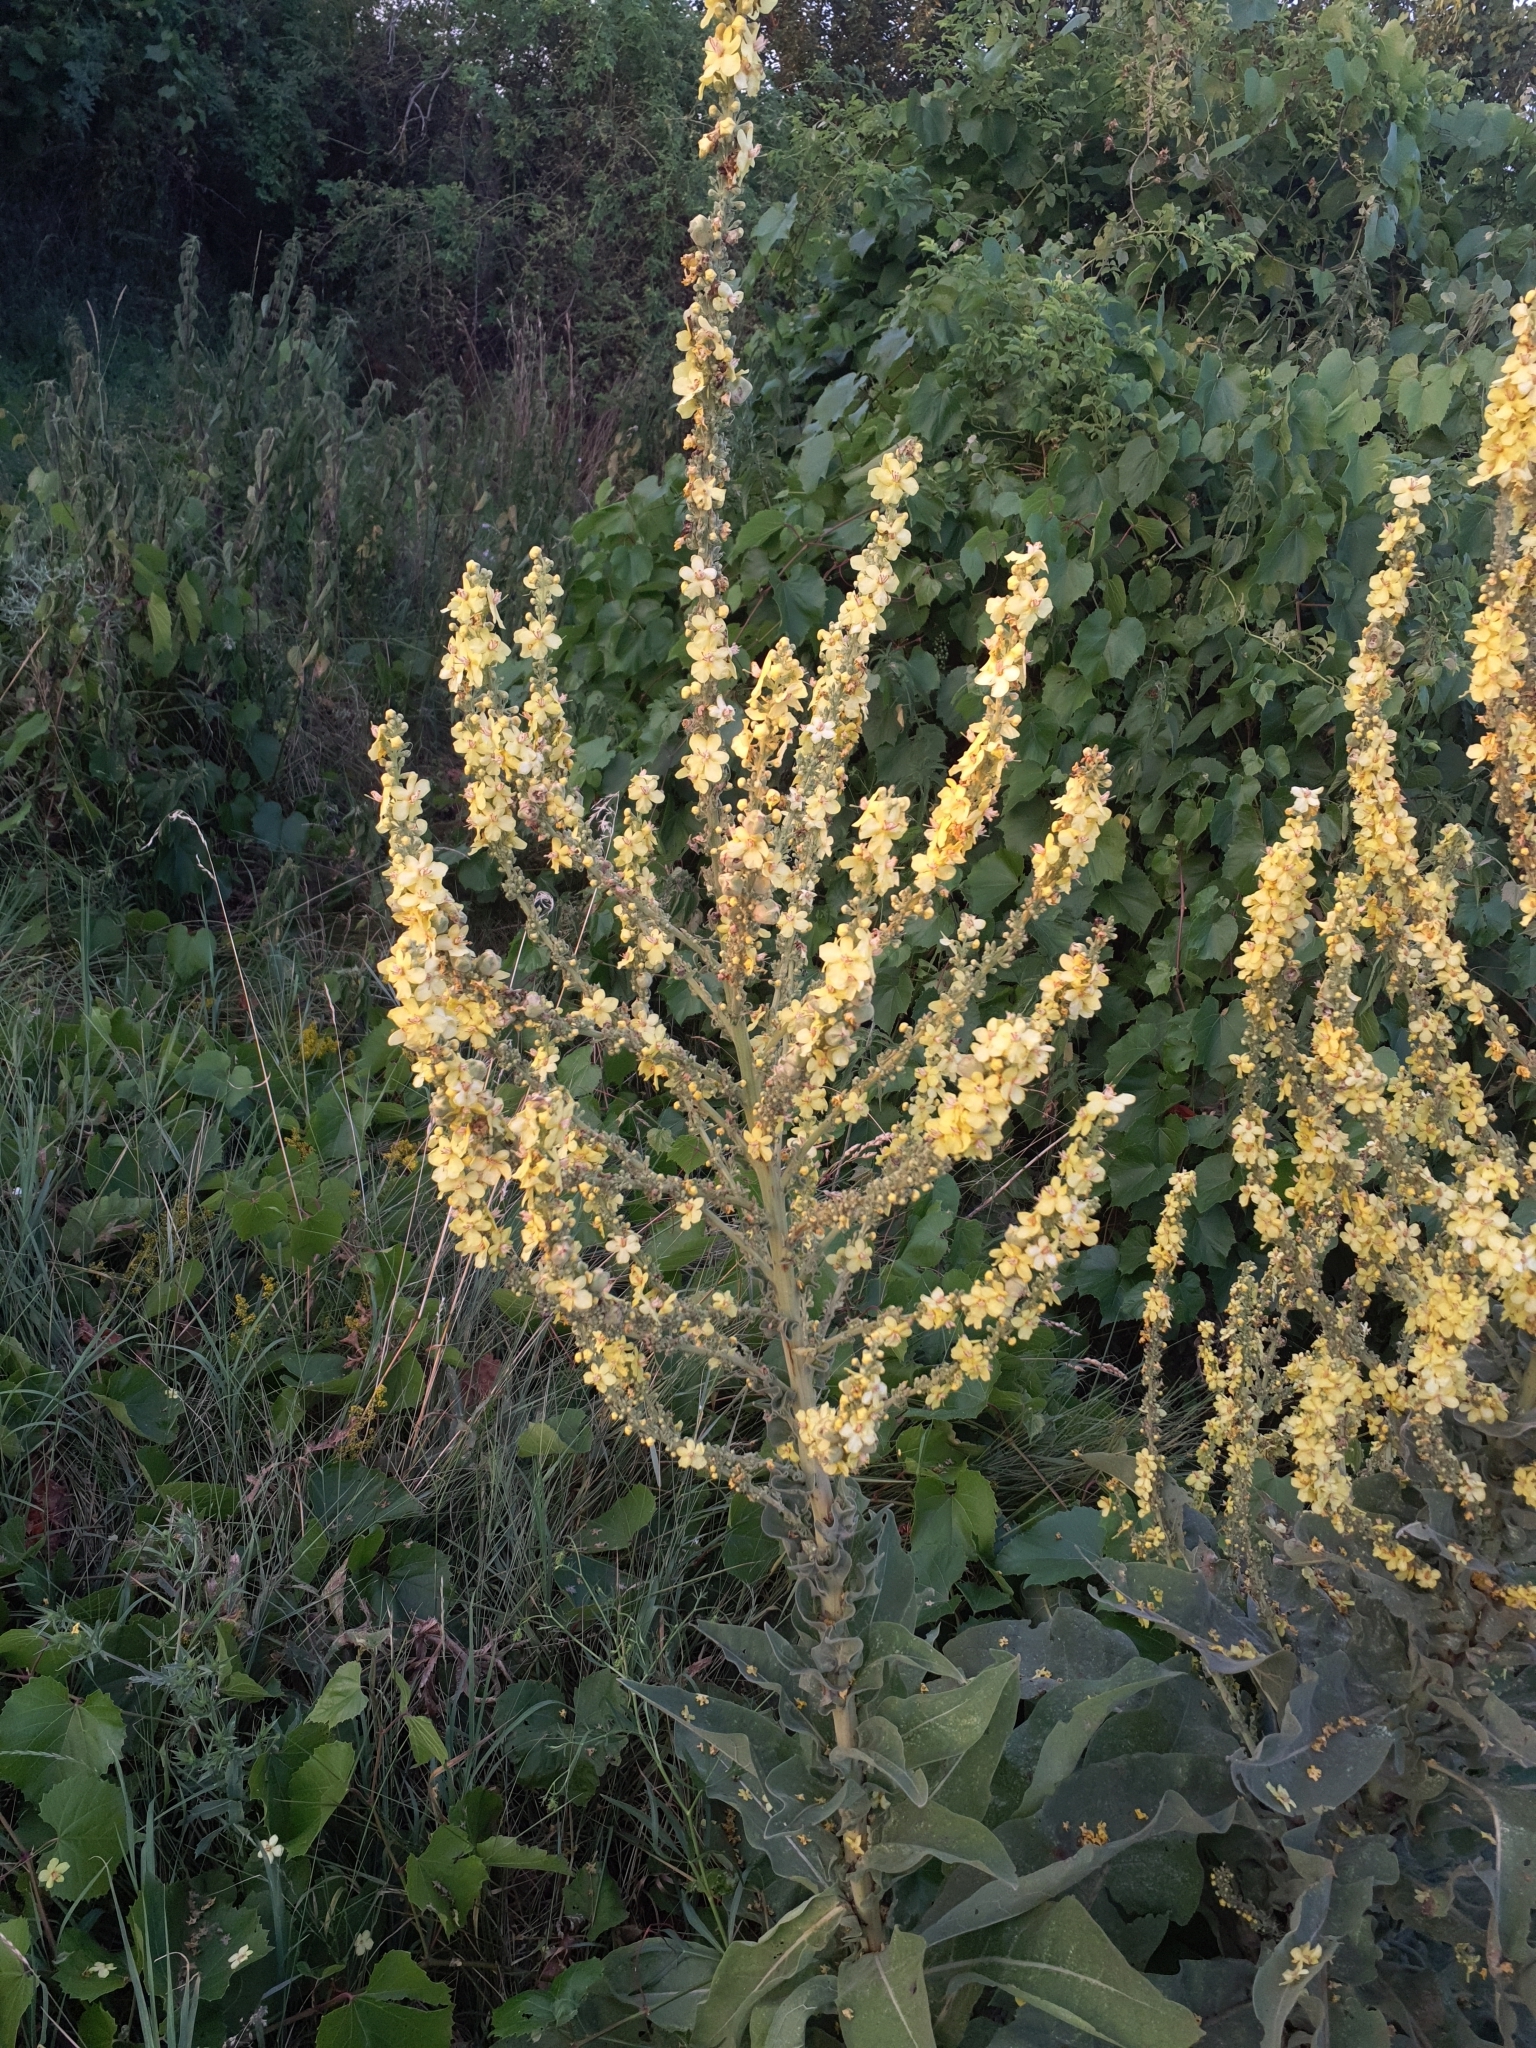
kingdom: Plantae
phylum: Tracheophyta
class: Magnoliopsida
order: Lamiales
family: Scrophulariaceae
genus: Verbascum
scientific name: Verbascum speciosum
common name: Hungarian mullein
